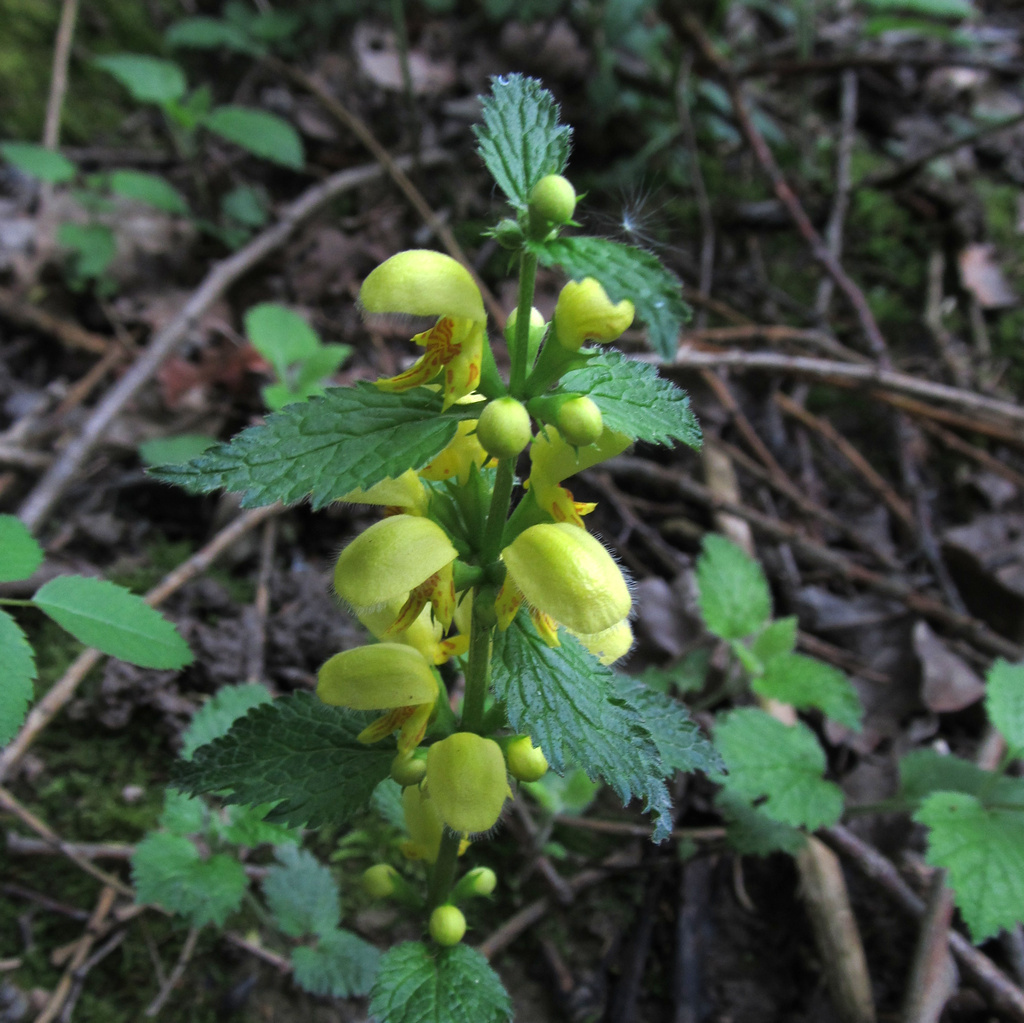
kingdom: Plantae
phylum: Tracheophyta
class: Magnoliopsida
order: Lamiales
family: Lamiaceae
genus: Lamium
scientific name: Lamium galeobdolon
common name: Yellow archangel
